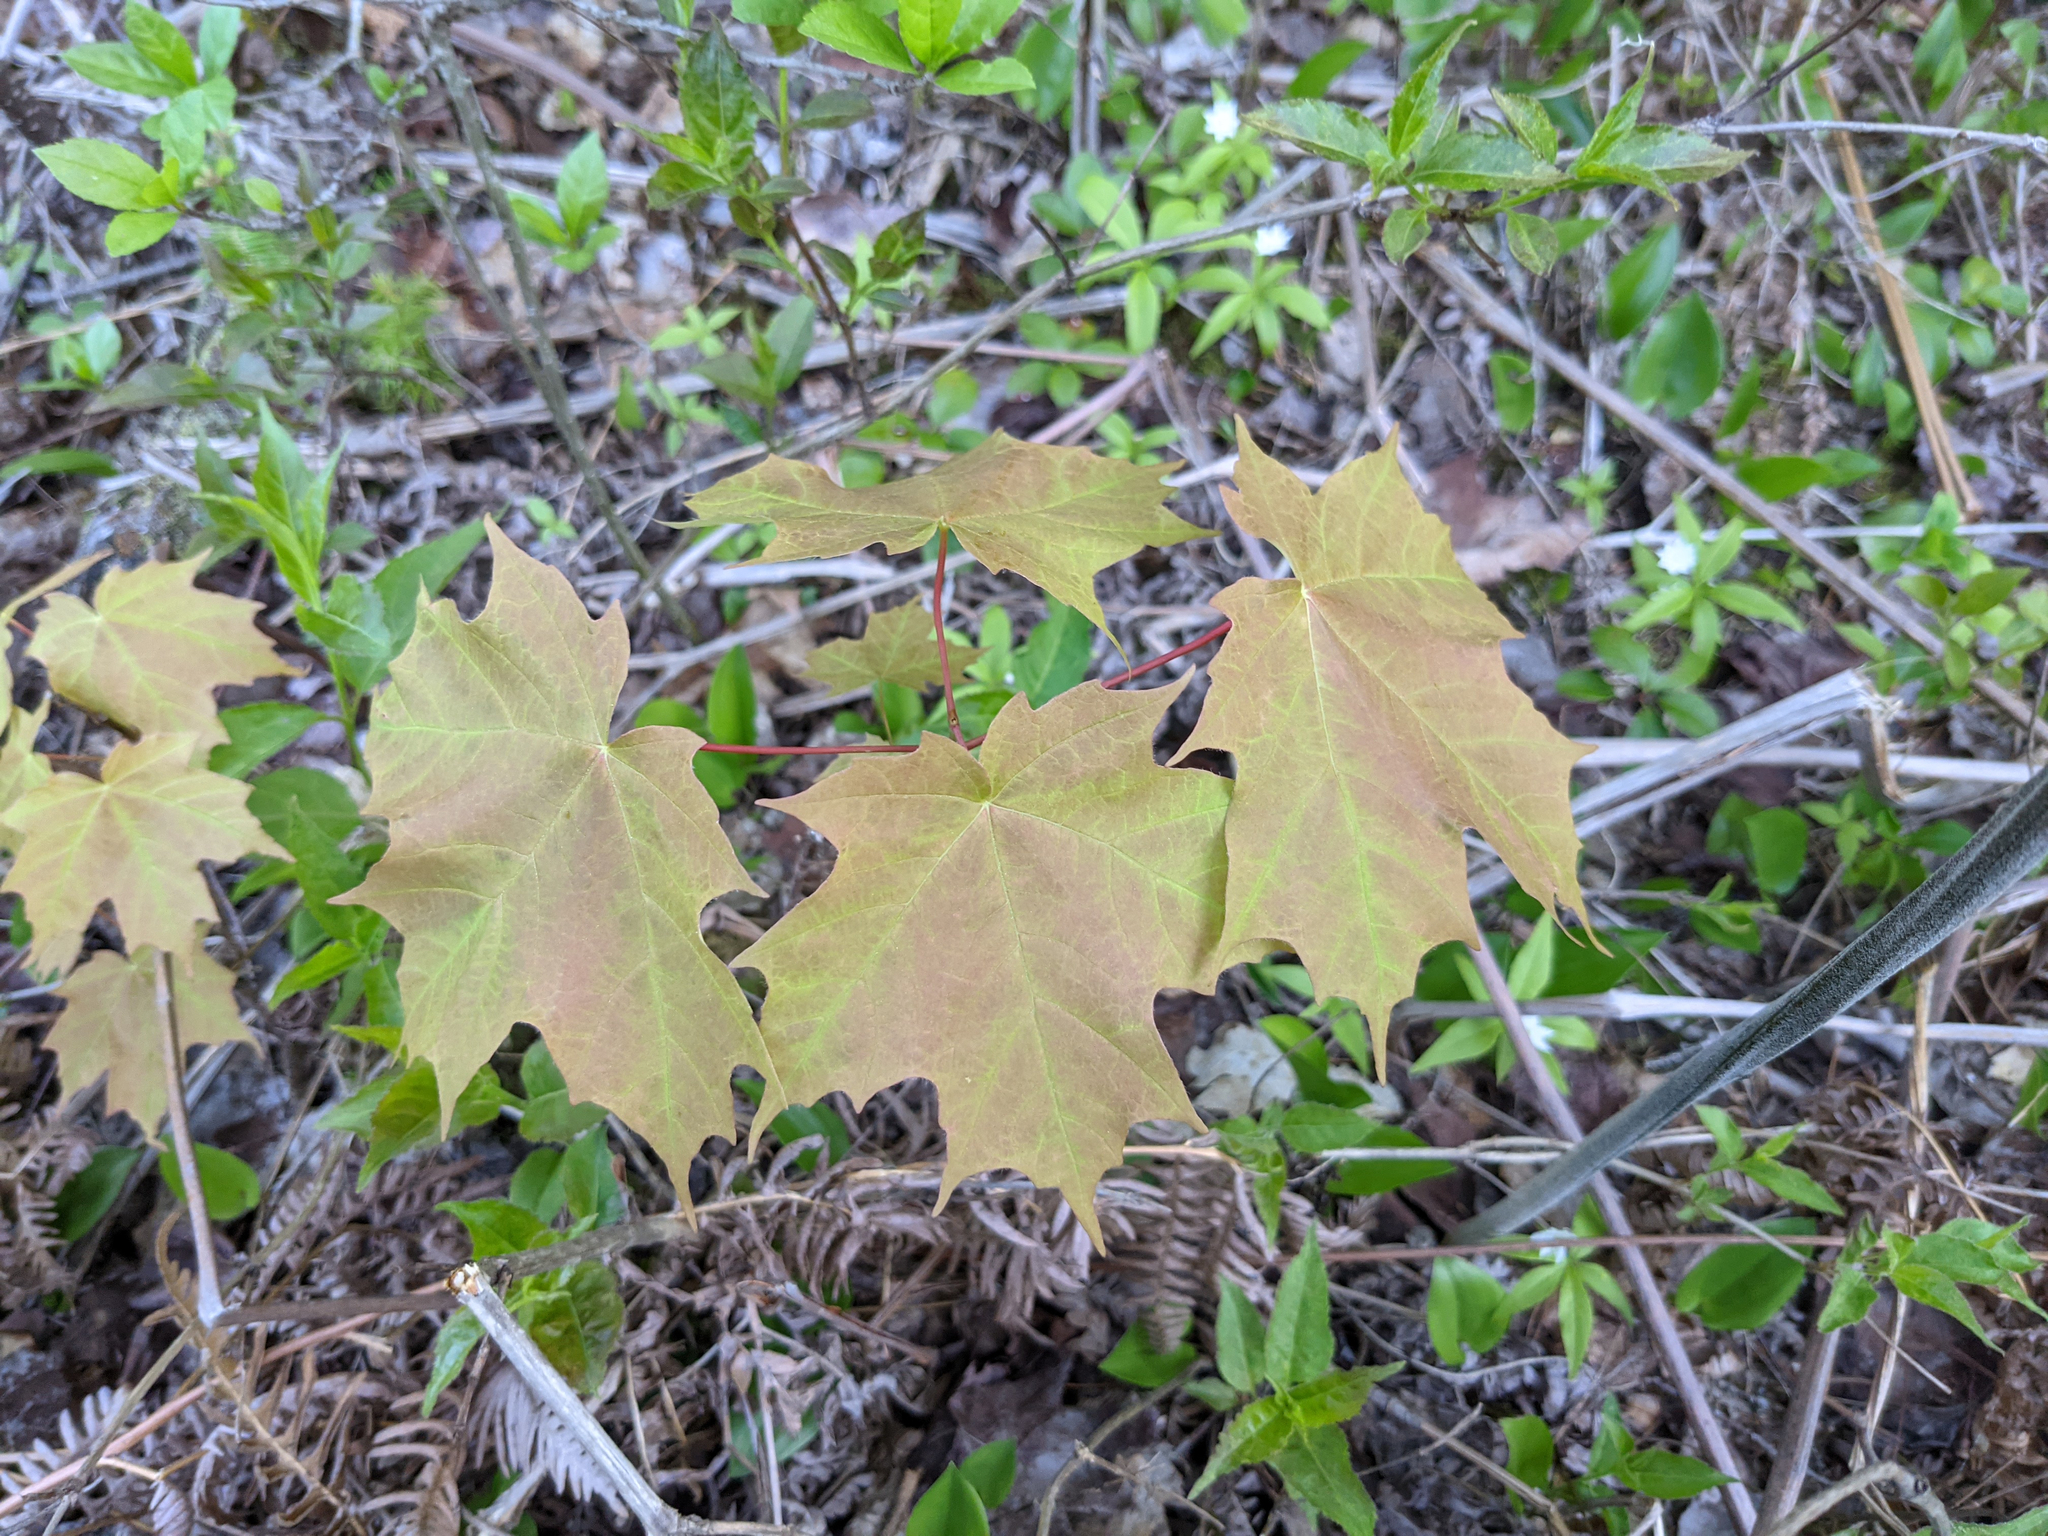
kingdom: Plantae
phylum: Tracheophyta
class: Magnoliopsida
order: Sapindales
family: Sapindaceae
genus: Acer
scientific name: Acer saccharum
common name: Sugar maple
